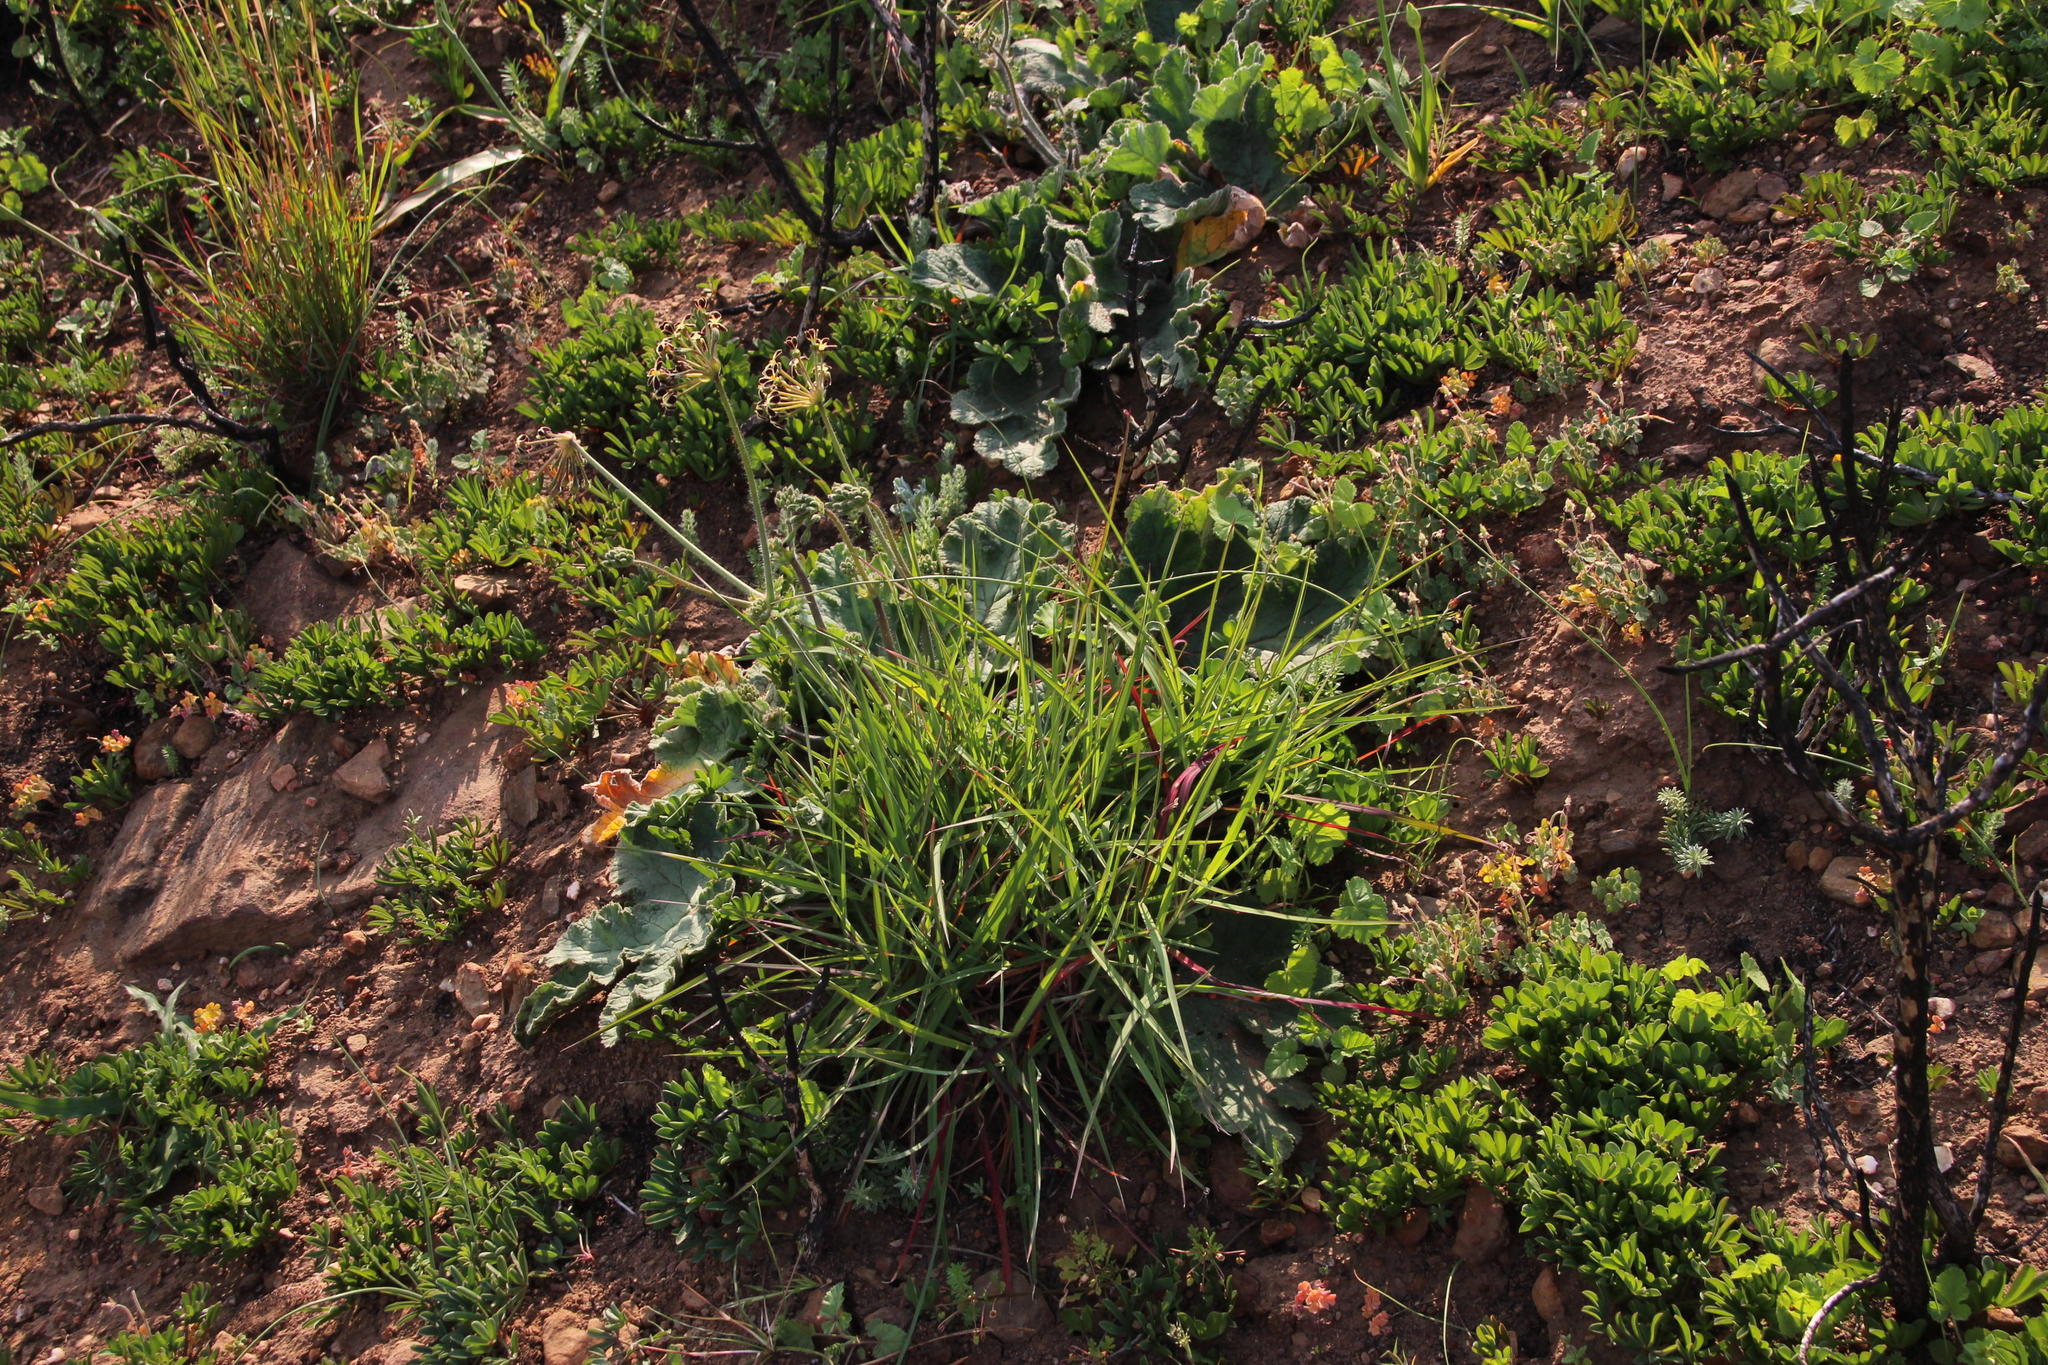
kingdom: Plantae
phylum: Tracheophyta
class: Magnoliopsida
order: Geraniales
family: Geraniaceae
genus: Pelargonium
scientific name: Pelargonium lobatum
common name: Vine-leaf pelargonium
